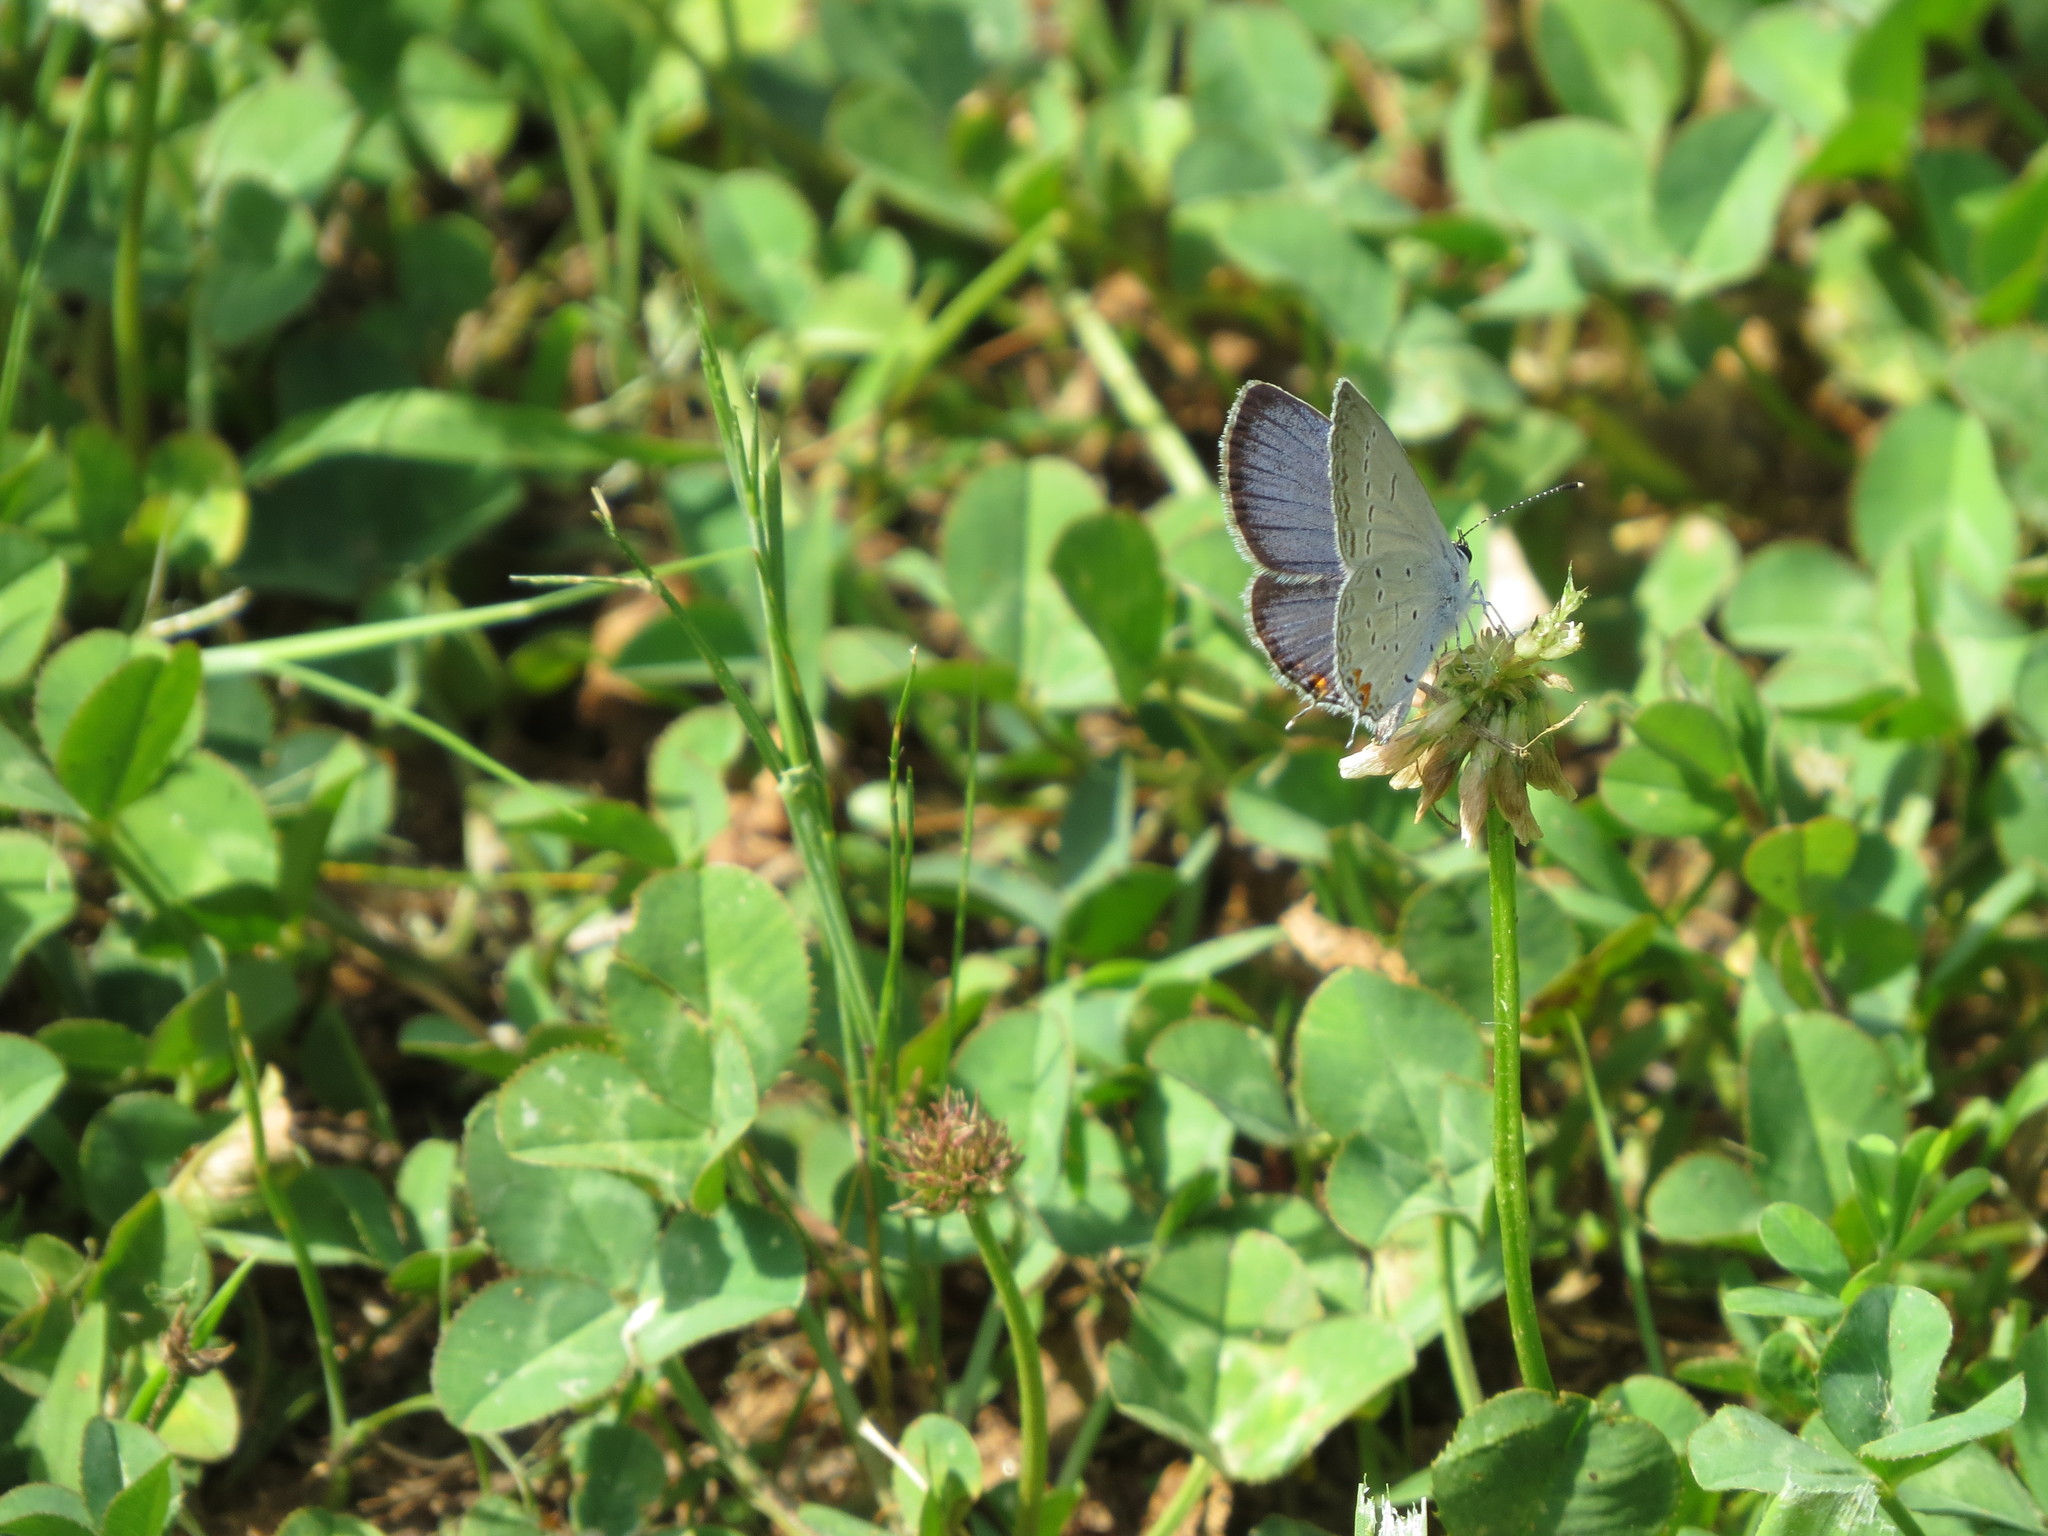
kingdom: Animalia
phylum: Arthropoda
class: Insecta
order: Lepidoptera
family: Lycaenidae
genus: Elkalyce
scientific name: Elkalyce comyntas
